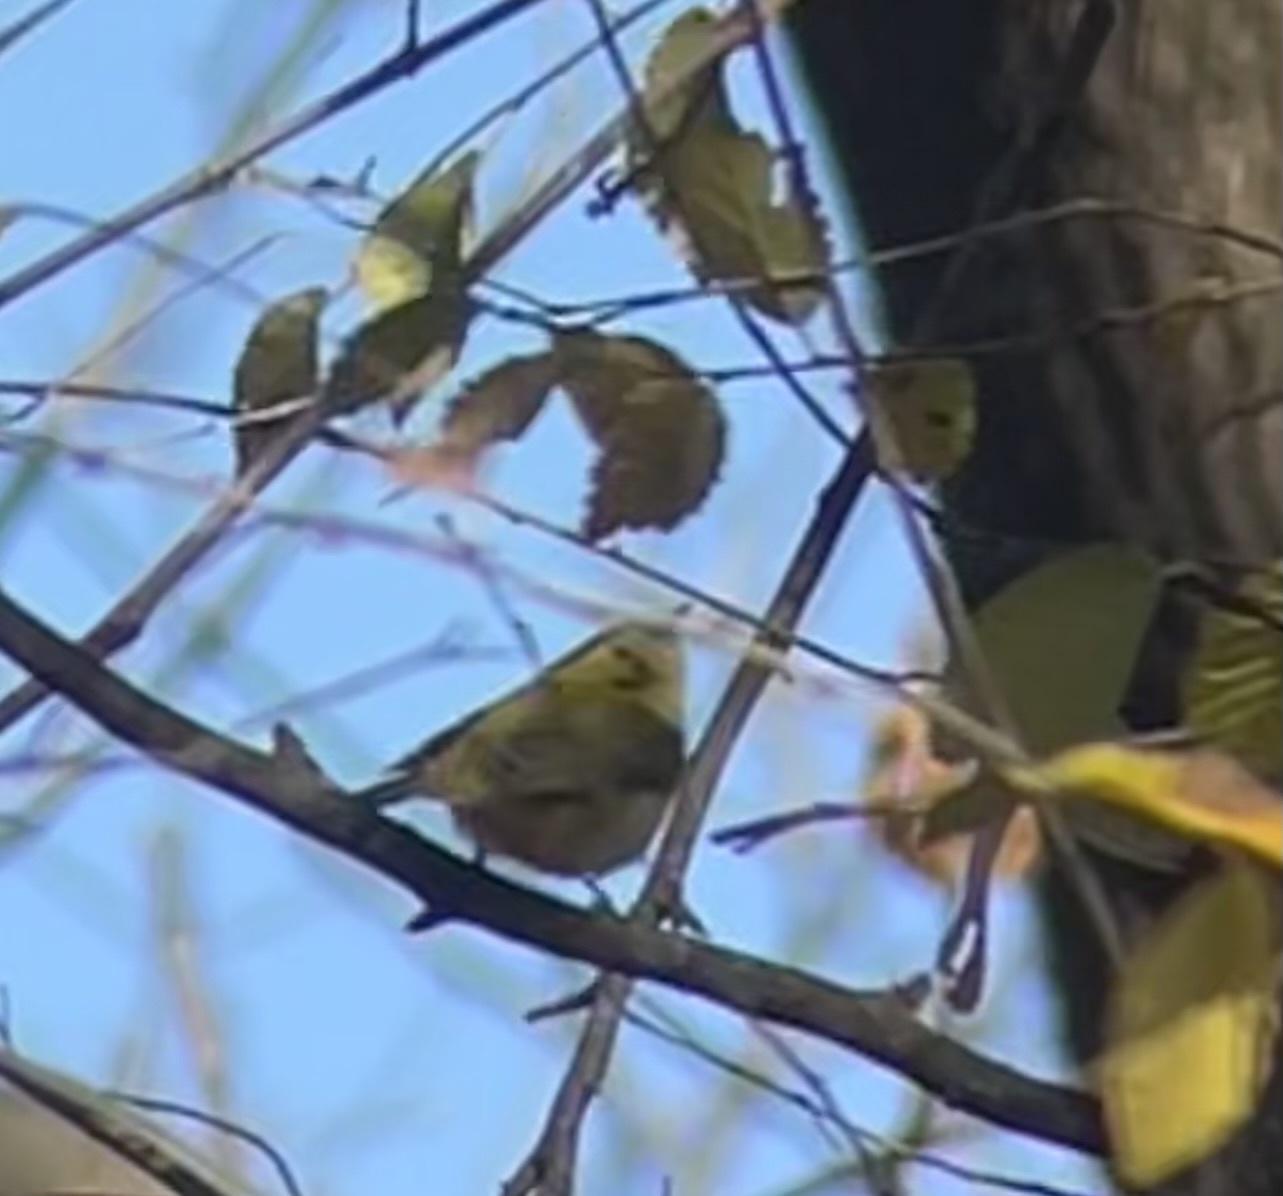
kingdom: Animalia
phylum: Chordata
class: Aves
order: Passeriformes
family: Parulidae
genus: Cardellina
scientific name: Cardellina pusilla
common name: Wilson's warbler
